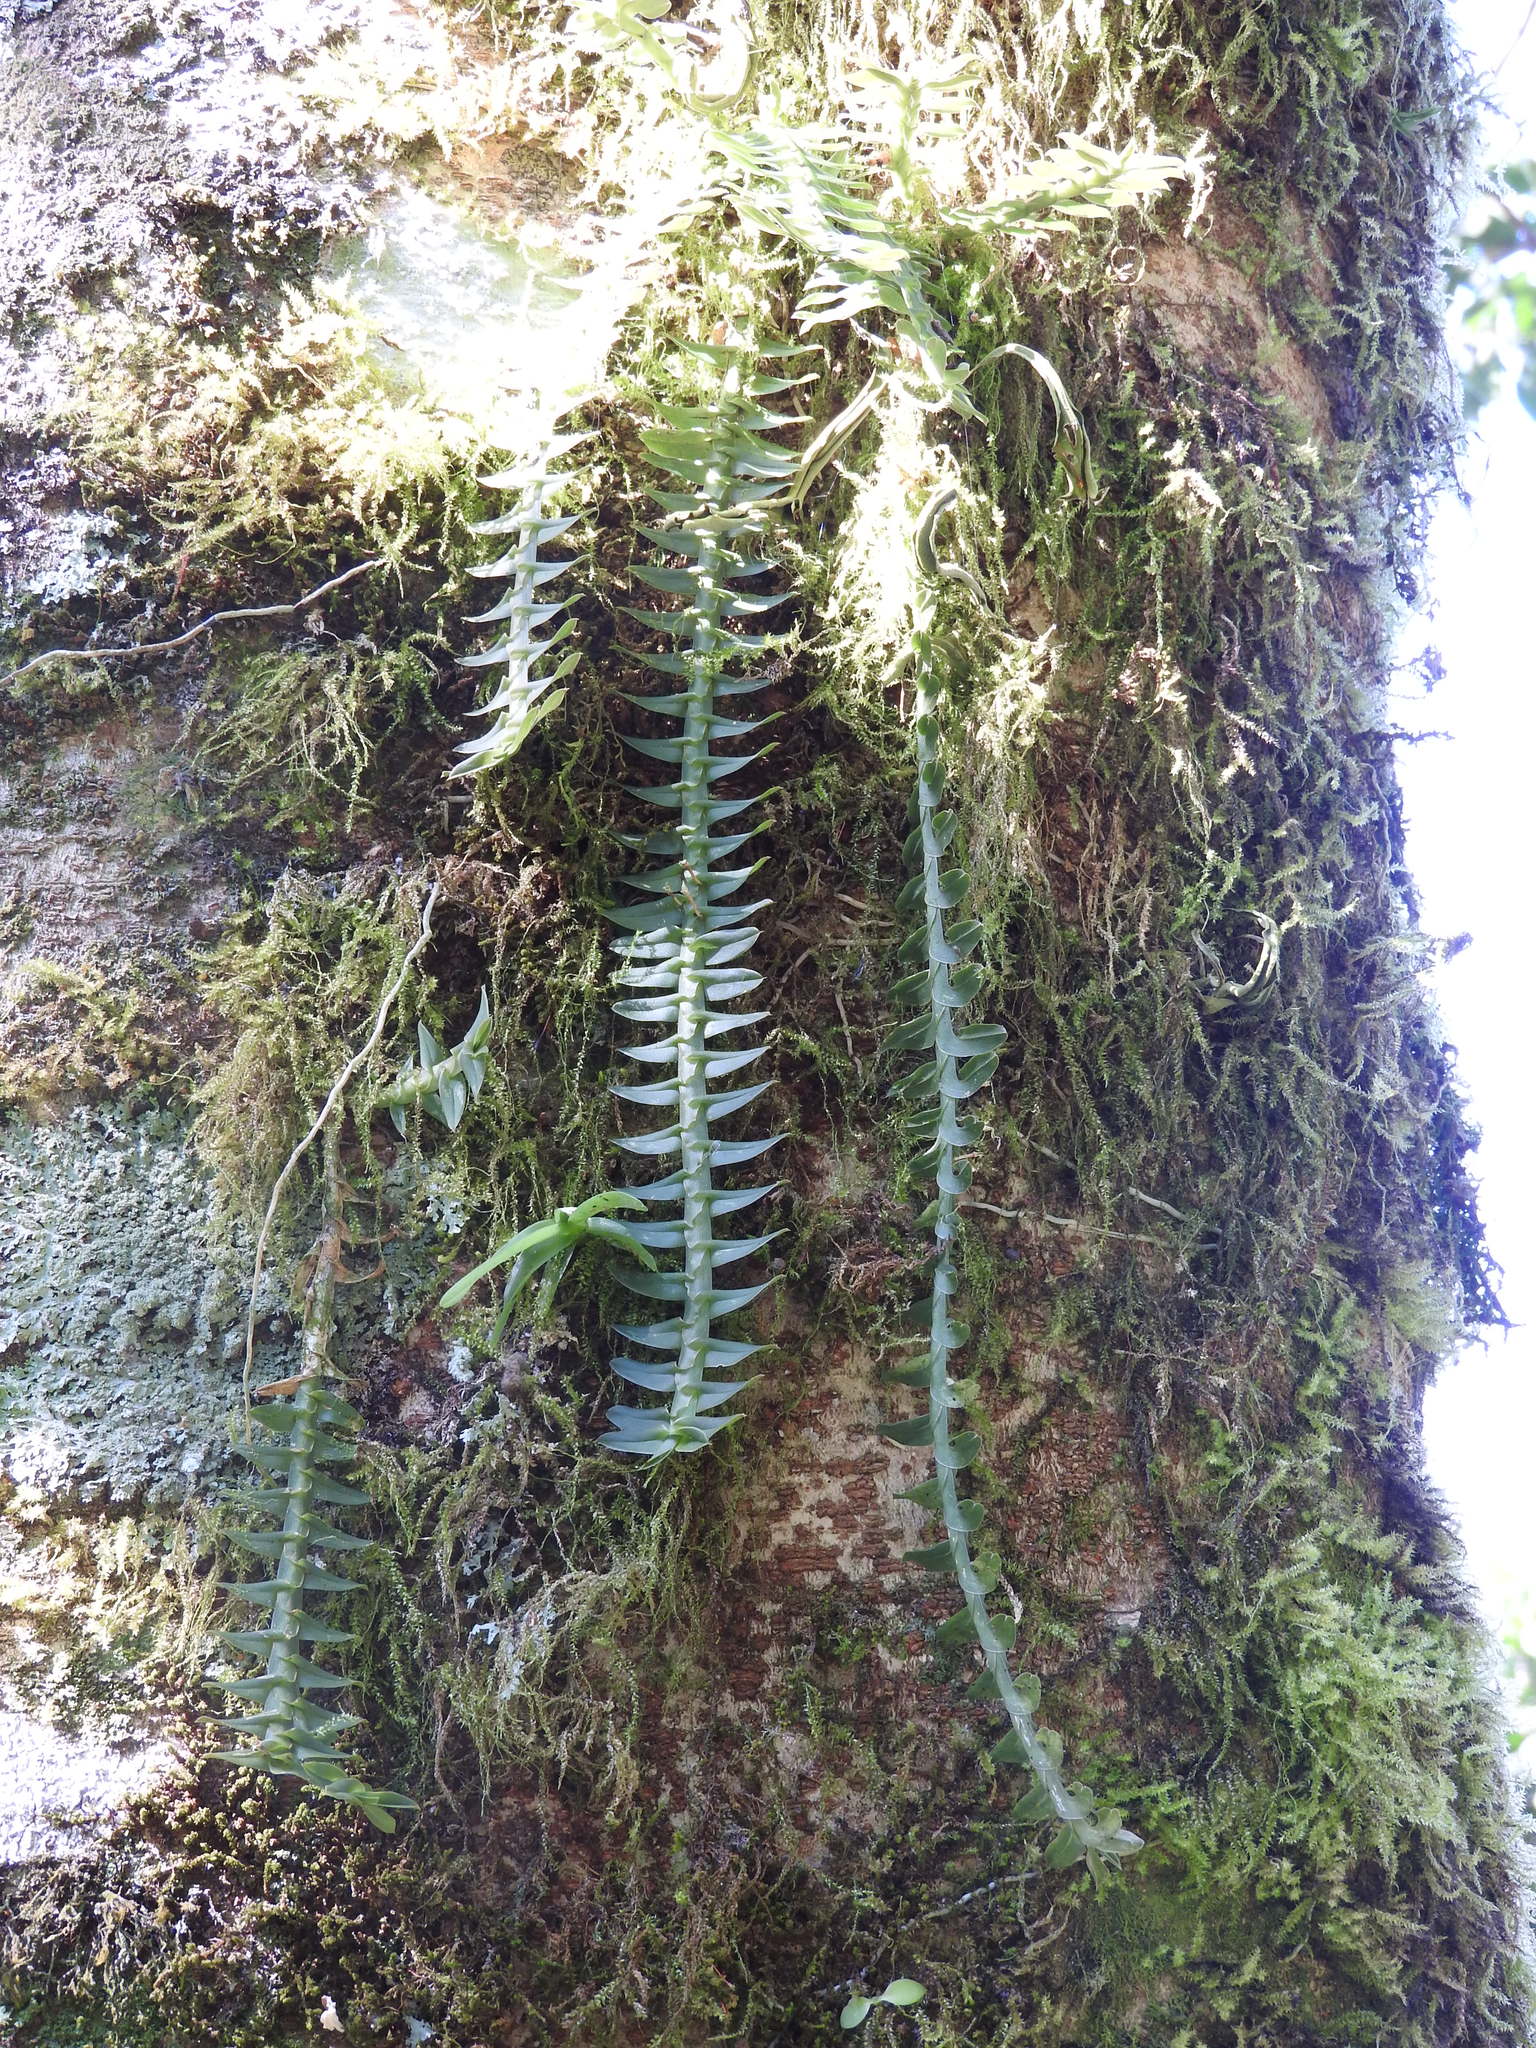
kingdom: Plantae
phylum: Tracheophyta
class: Liliopsida
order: Asparagales
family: Orchidaceae
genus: Dichaea
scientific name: Dichaea muricatoides
